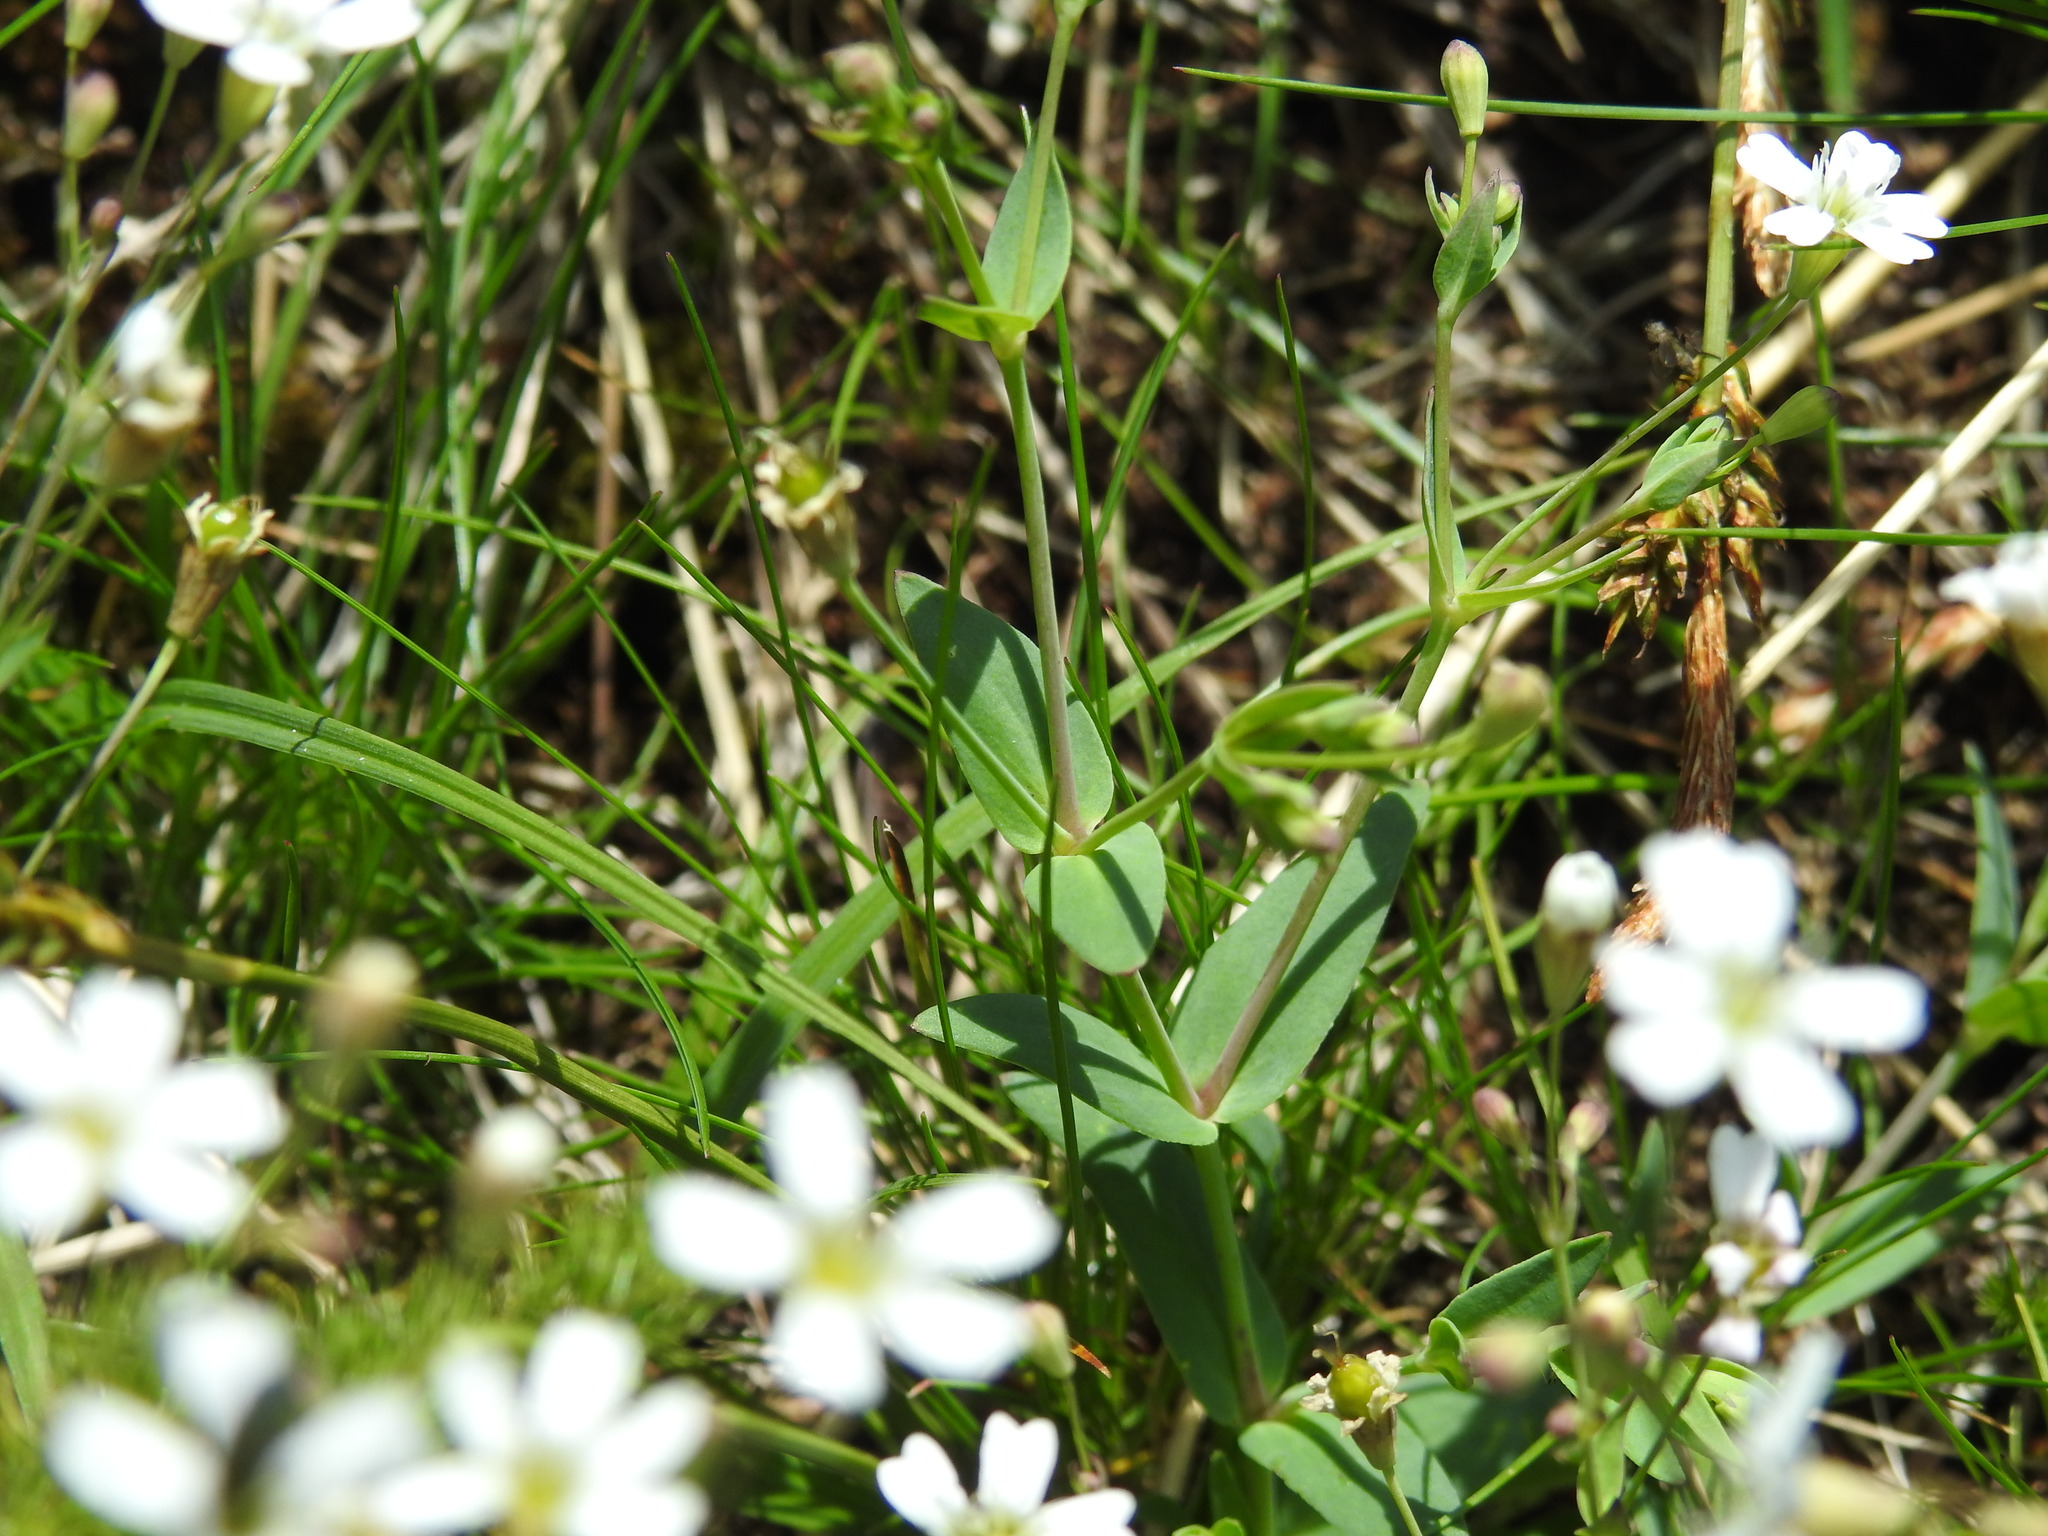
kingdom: Plantae
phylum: Tracheophyta
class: Magnoliopsida
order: Caryophyllales
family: Caryophyllaceae
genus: Atocion
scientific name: Atocion rupestre
